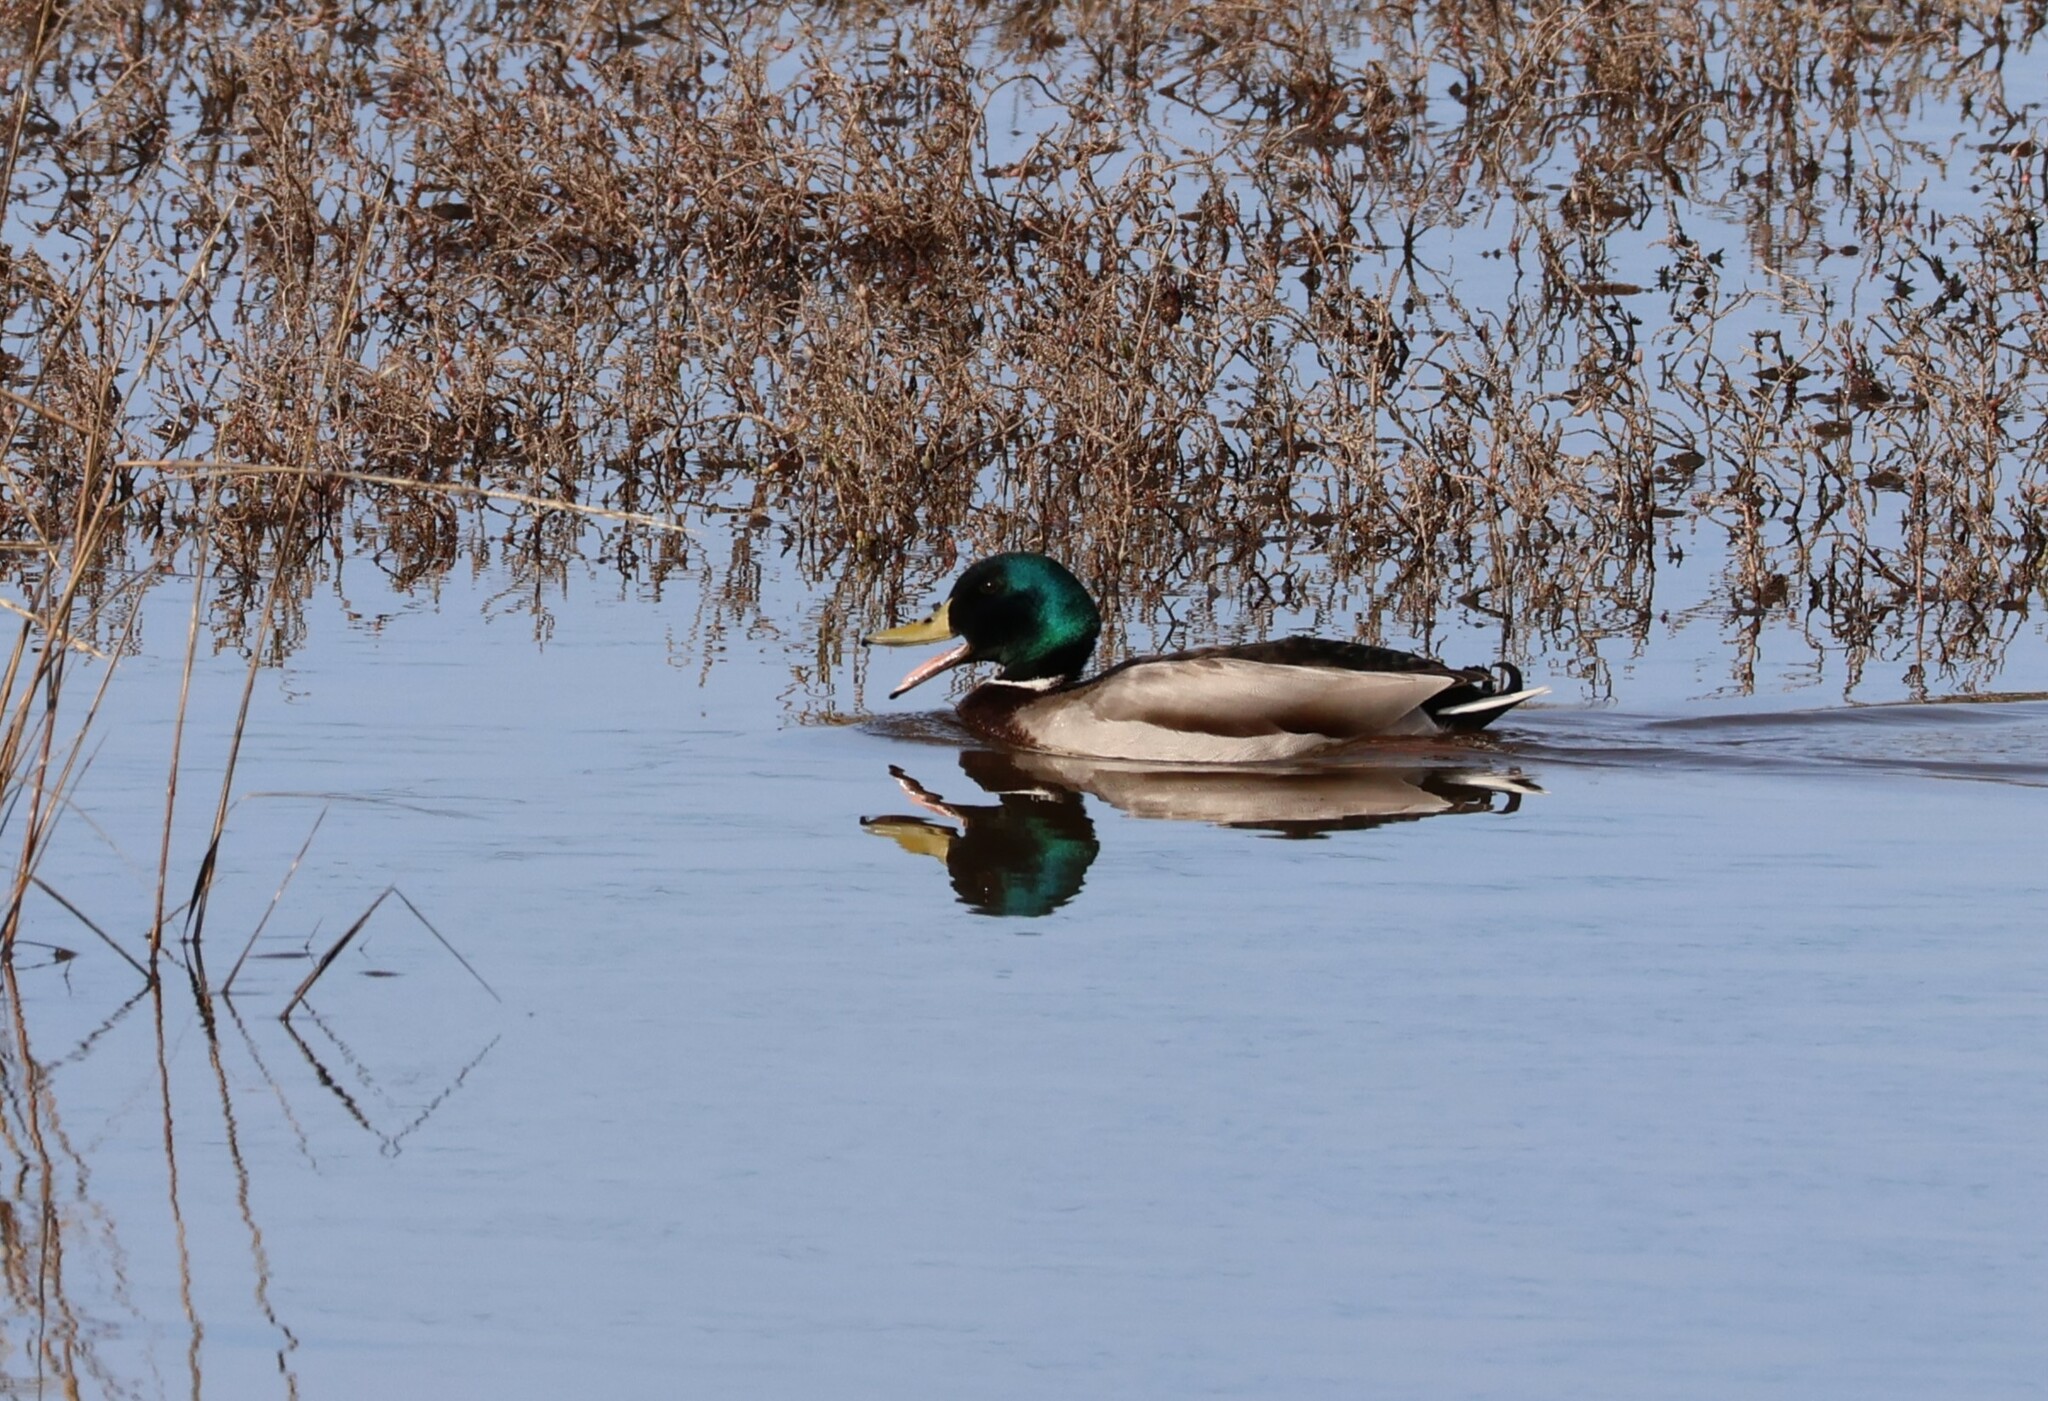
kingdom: Animalia
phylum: Chordata
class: Aves
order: Anseriformes
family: Anatidae
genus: Anas
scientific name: Anas platyrhynchos
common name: Mallard
